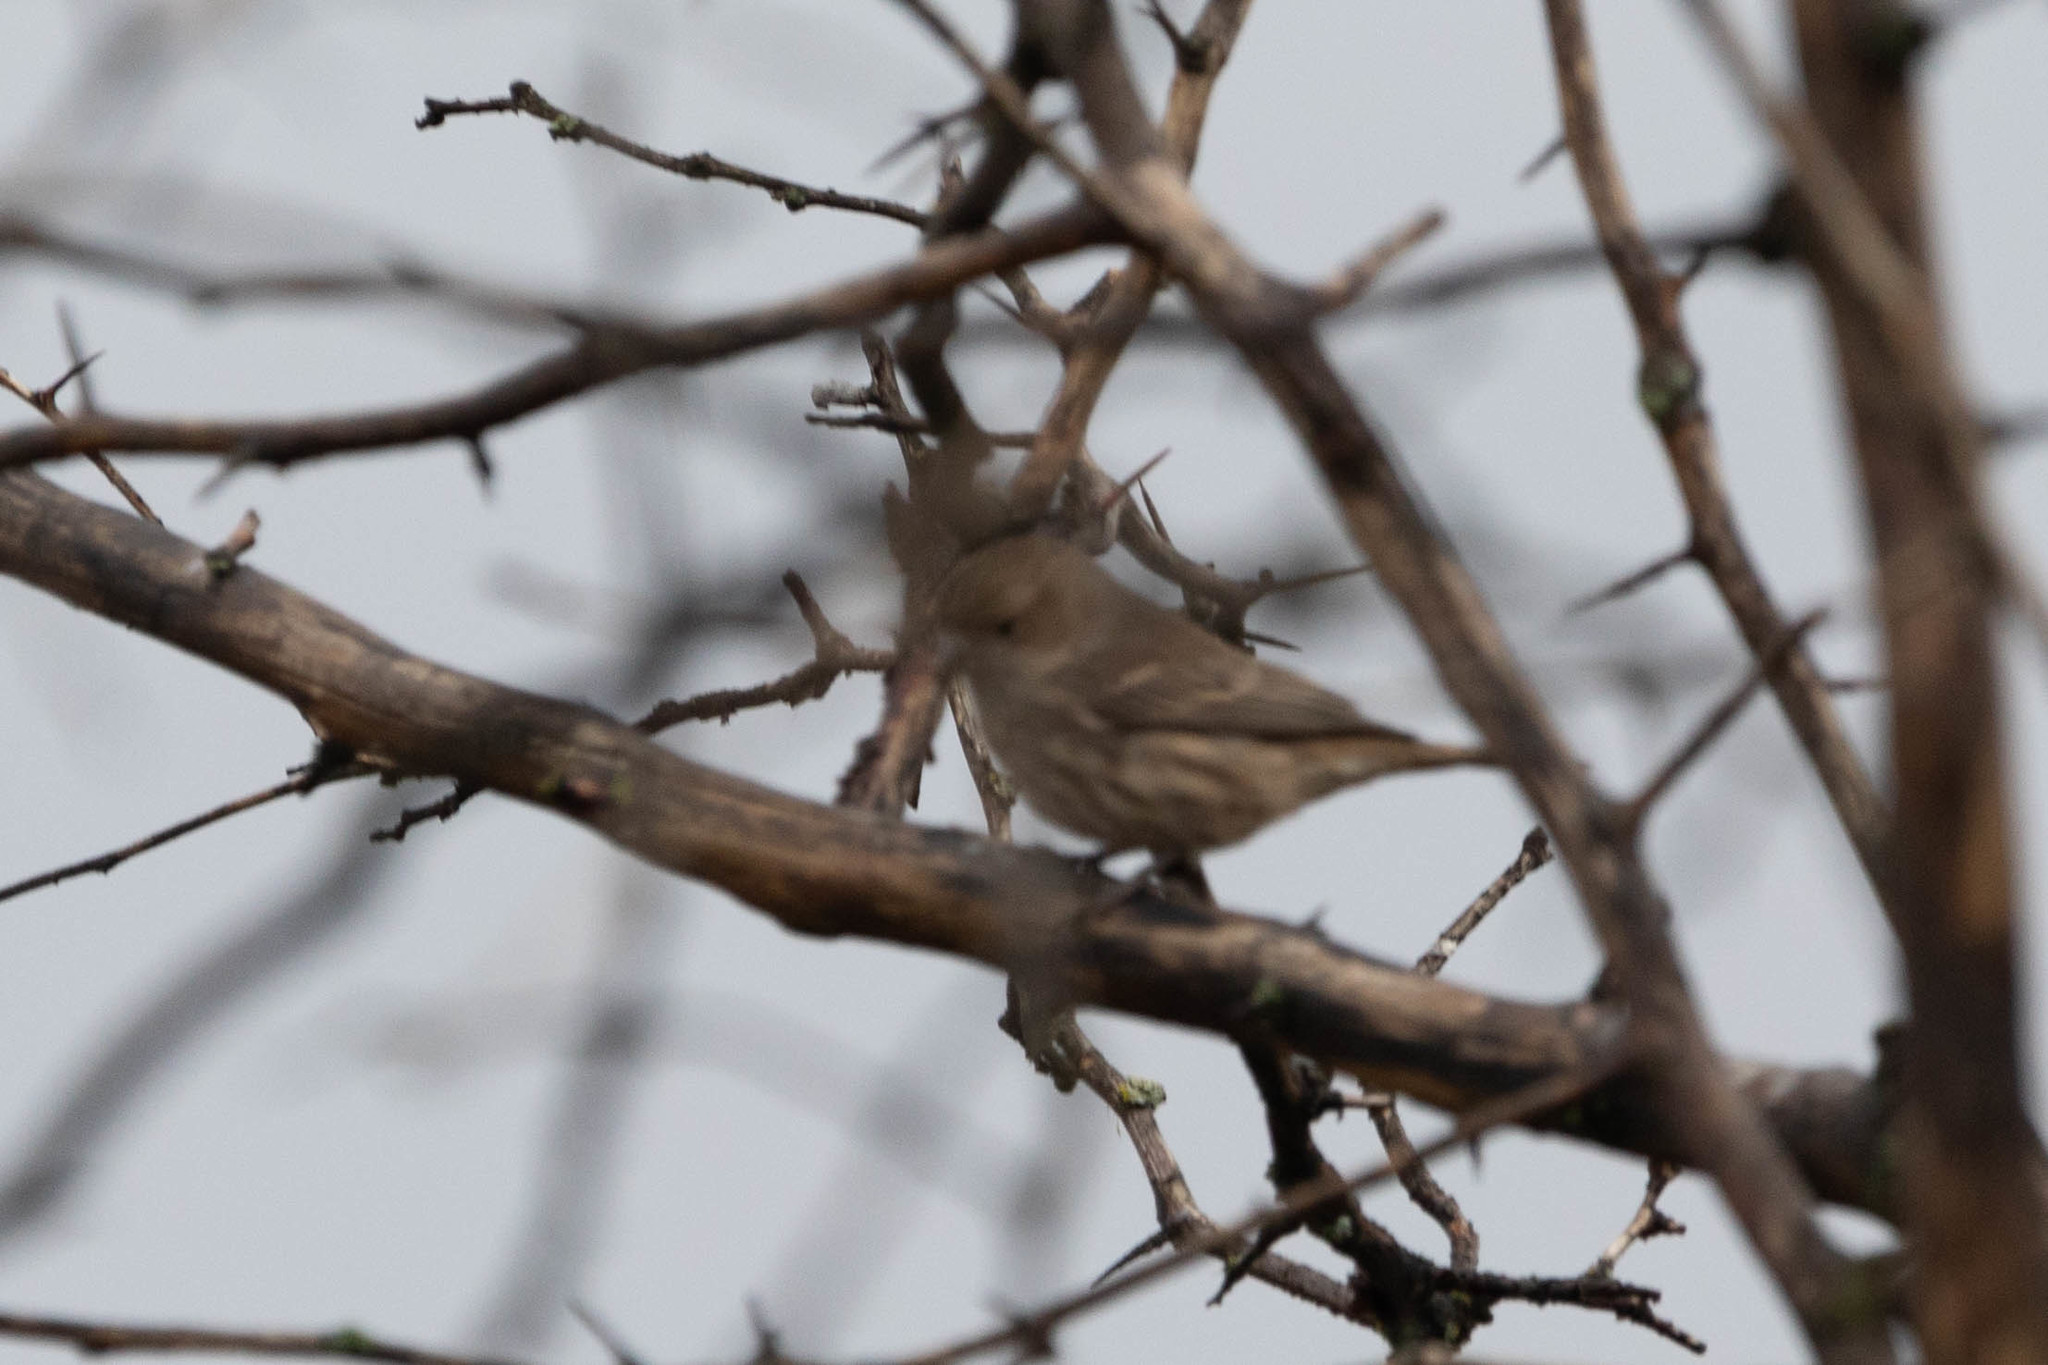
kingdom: Animalia
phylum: Chordata
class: Aves
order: Passeriformes
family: Fringillidae
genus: Haemorhous
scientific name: Haemorhous mexicanus
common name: House finch
